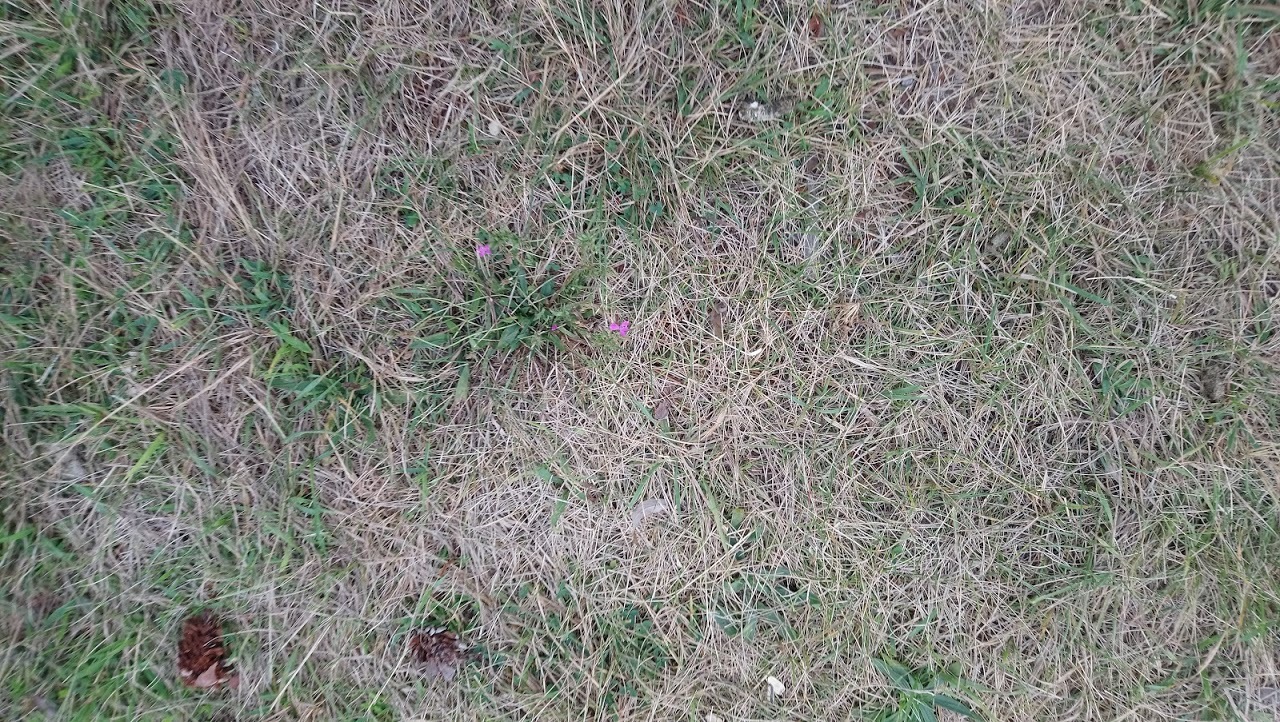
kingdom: Plantae
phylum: Tracheophyta
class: Magnoliopsida
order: Caryophyllales
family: Caryophyllaceae
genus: Dianthus
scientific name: Dianthus armeria
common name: Deptford pink
